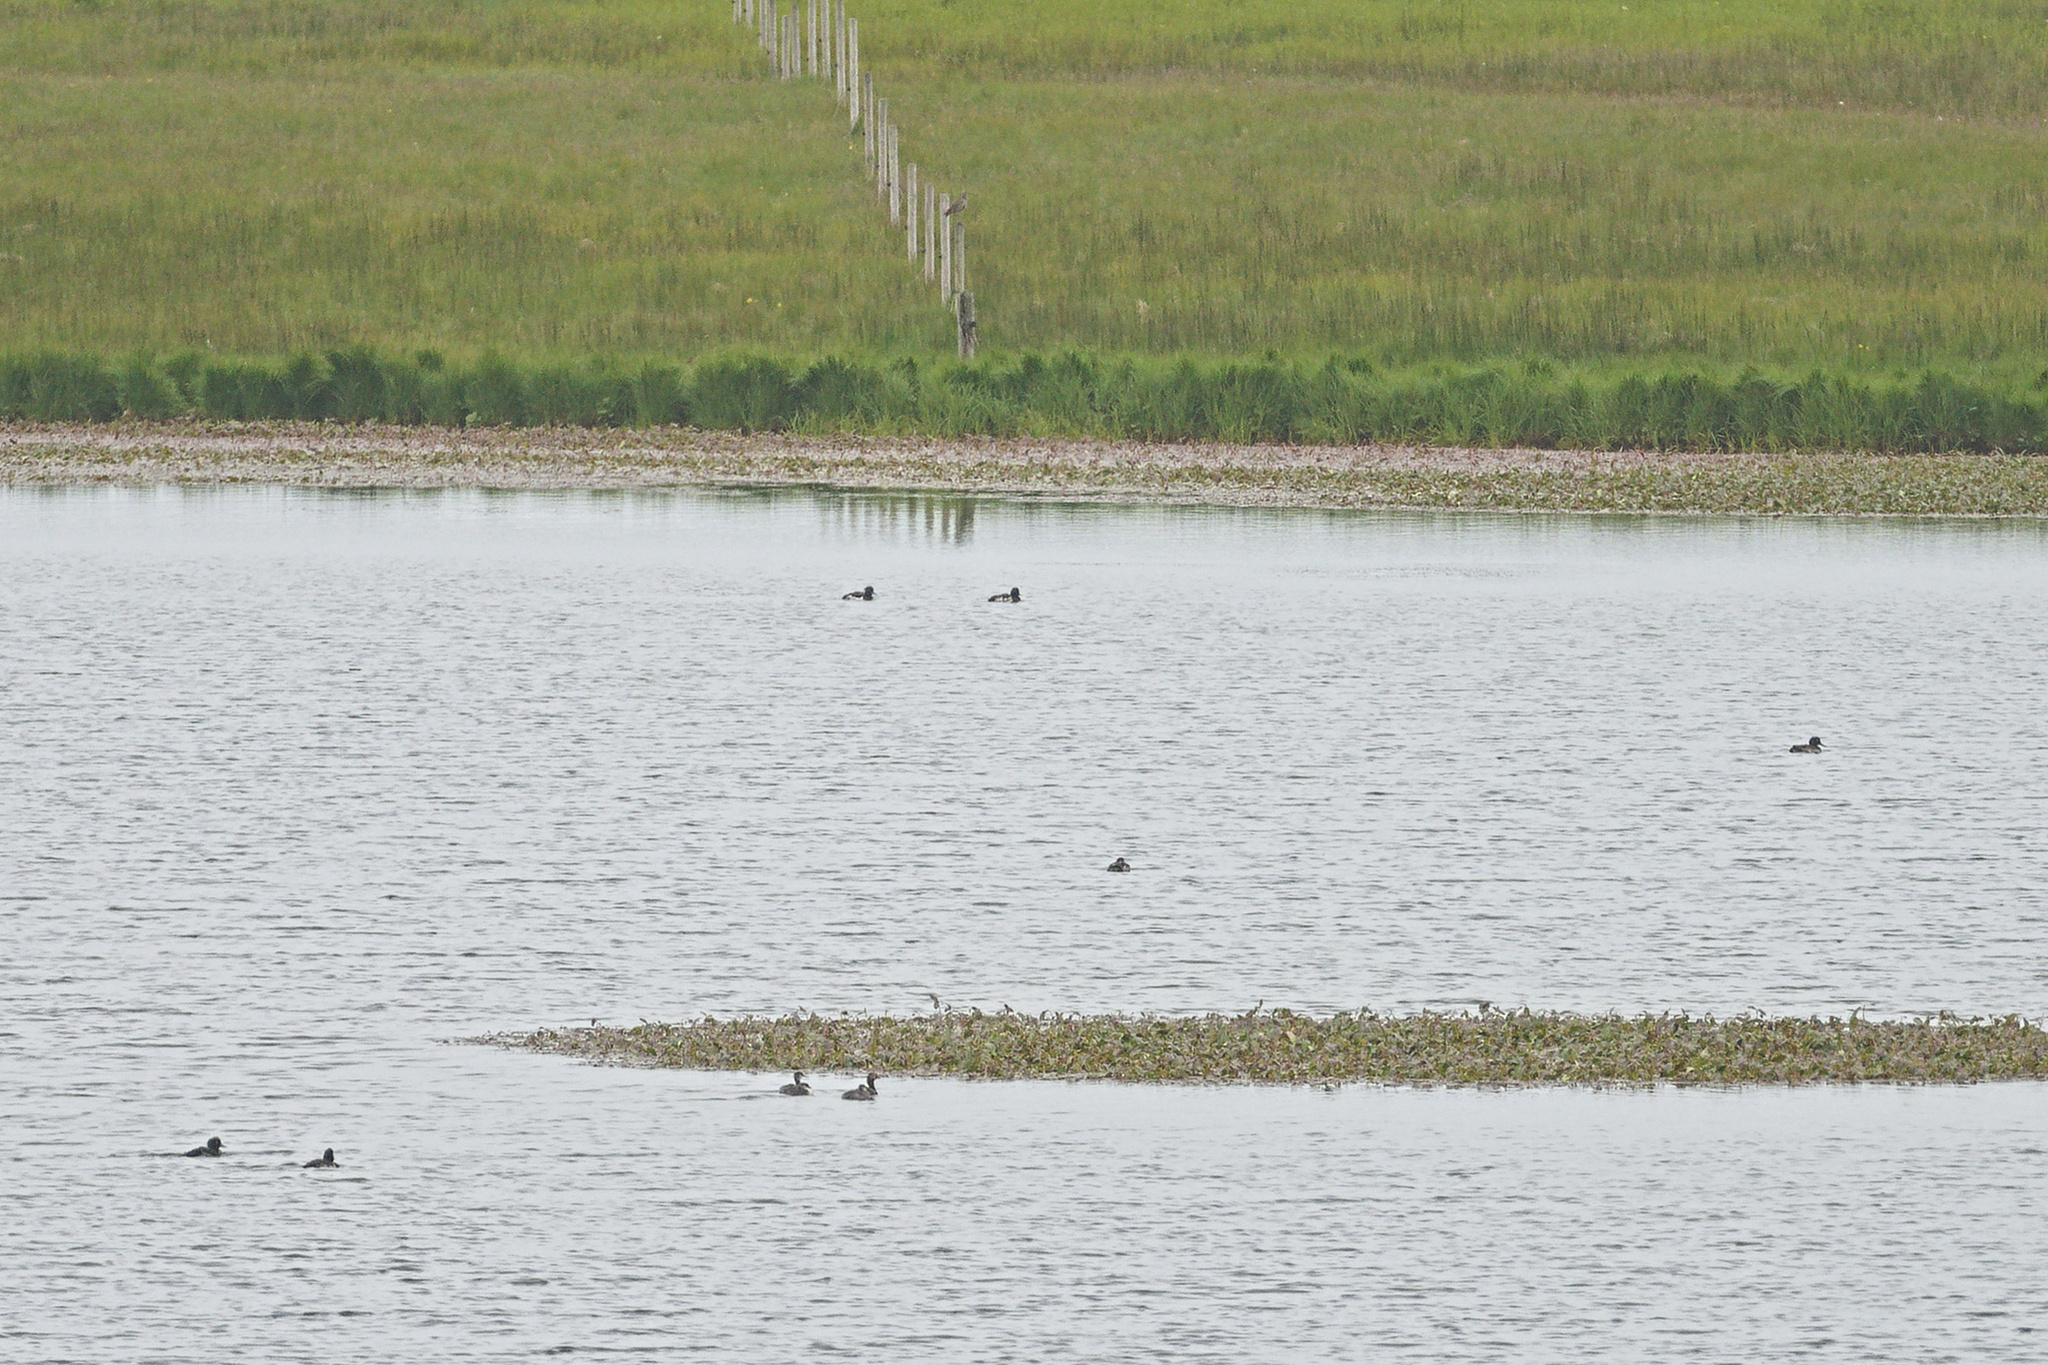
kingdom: Animalia
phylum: Chordata
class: Aves
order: Anseriformes
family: Anatidae
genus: Aythya
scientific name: Aythya fuligula
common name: Tufted duck
